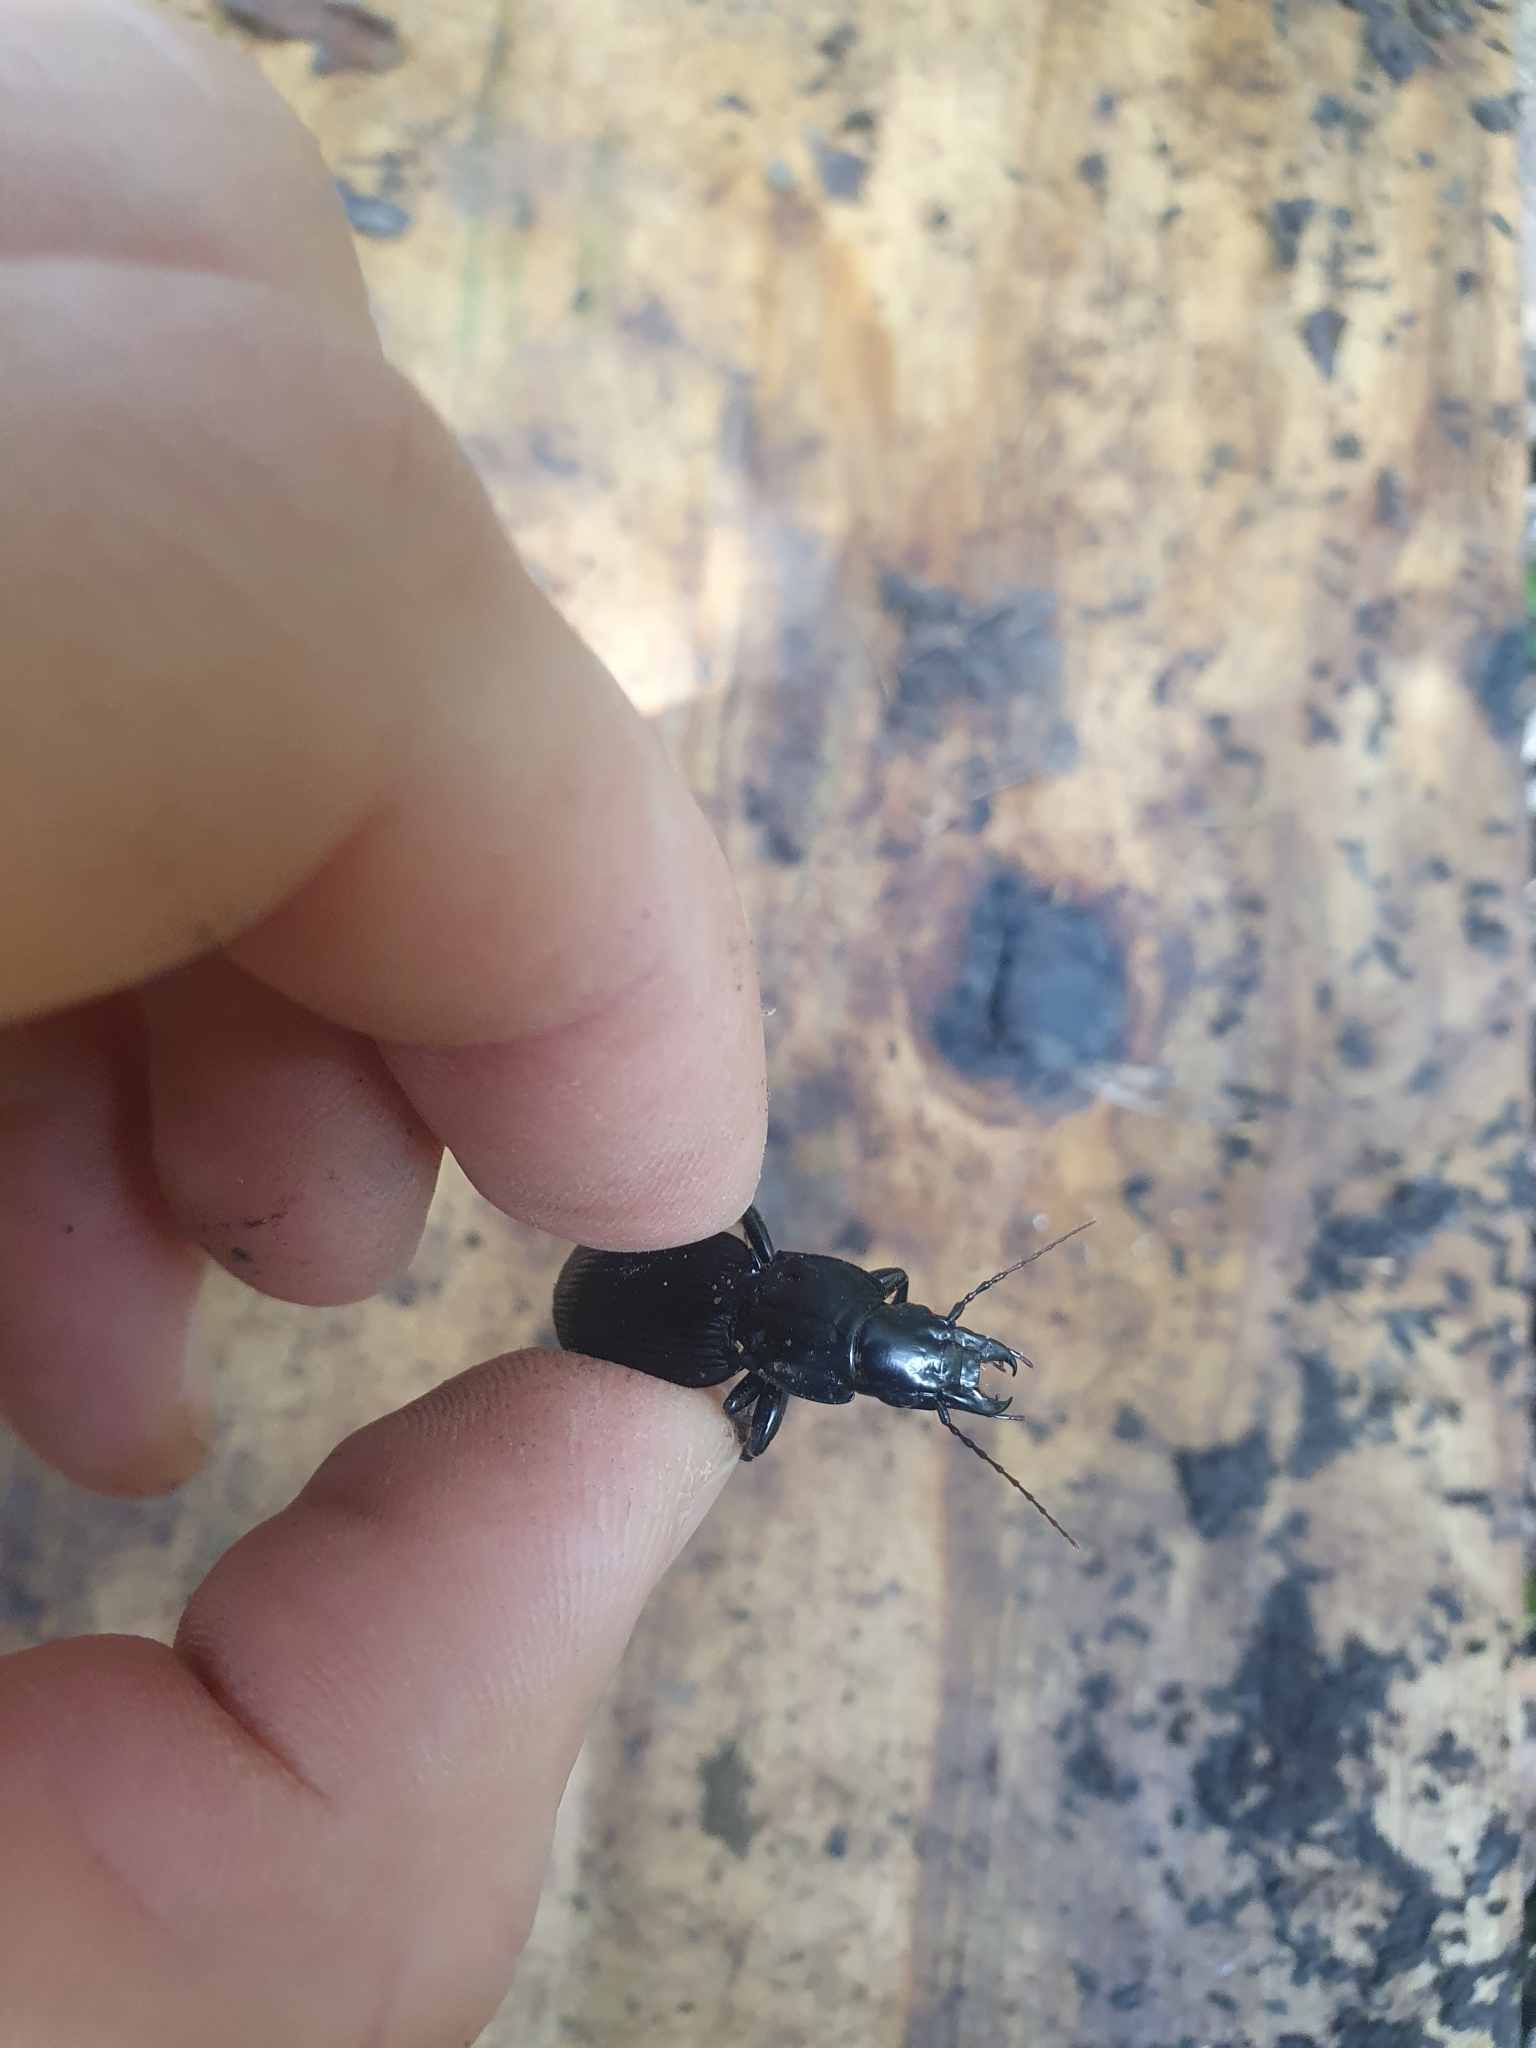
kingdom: Animalia
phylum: Arthropoda
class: Insecta
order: Coleoptera
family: Carabidae
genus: Plocamostethus
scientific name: Plocamostethus planiusculus
